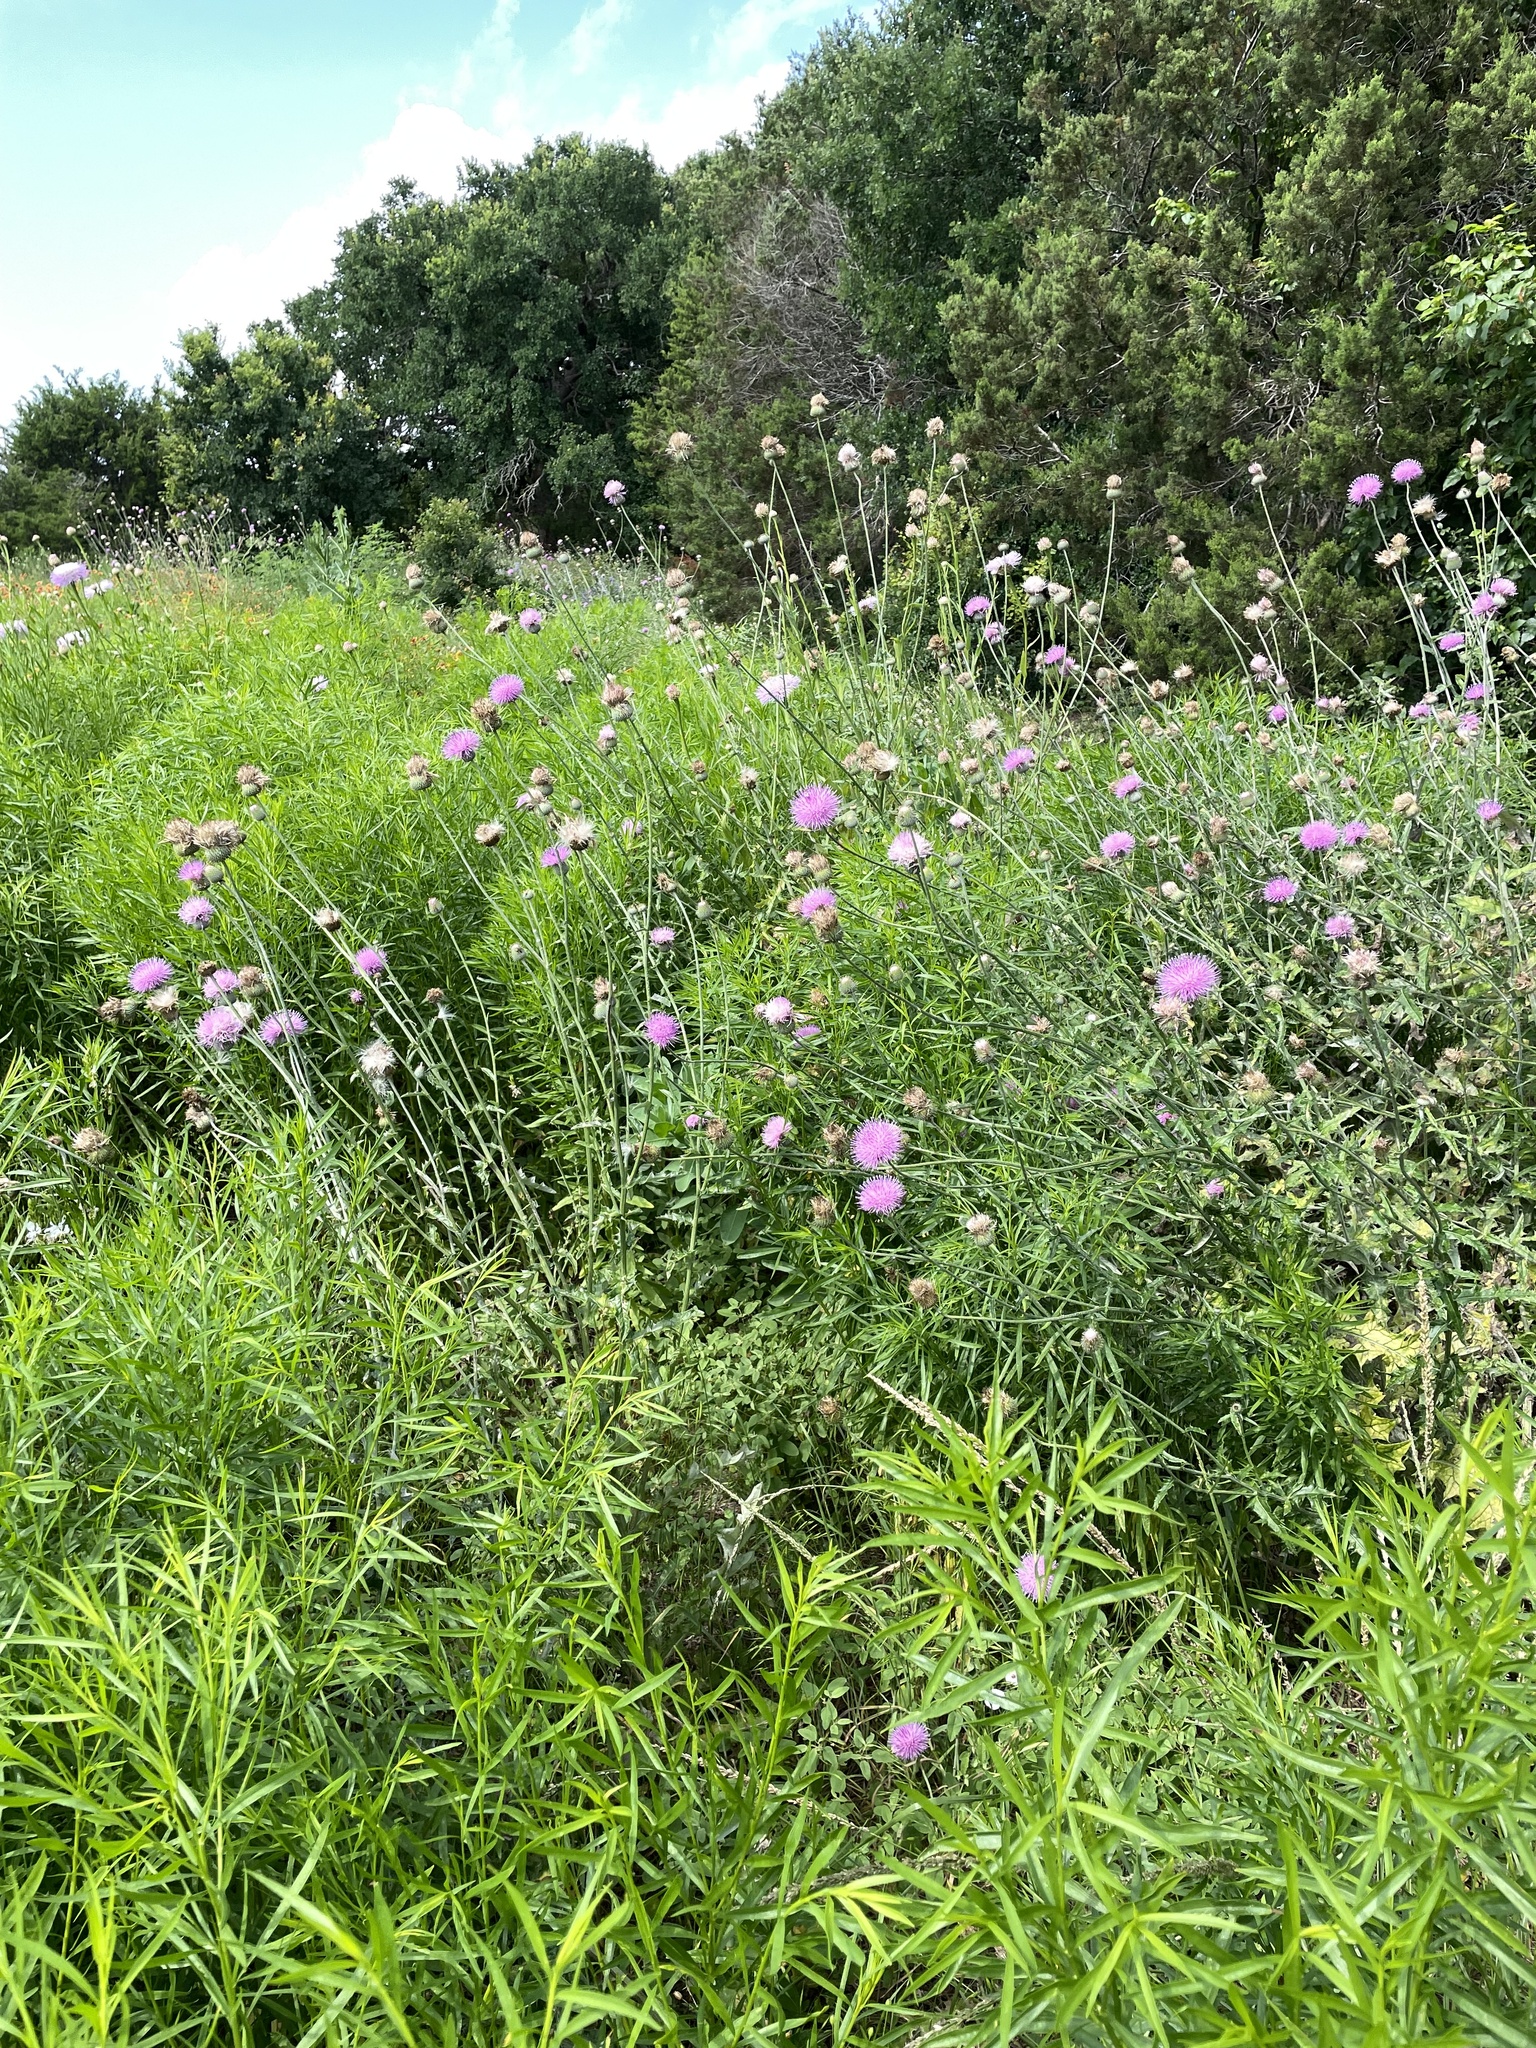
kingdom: Plantae
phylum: Tracheophyta
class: Magnoliopsida
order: Asterales
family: Asteraceae
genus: Cirsium
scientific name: Cirsium texanum
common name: Texas purple thistle
